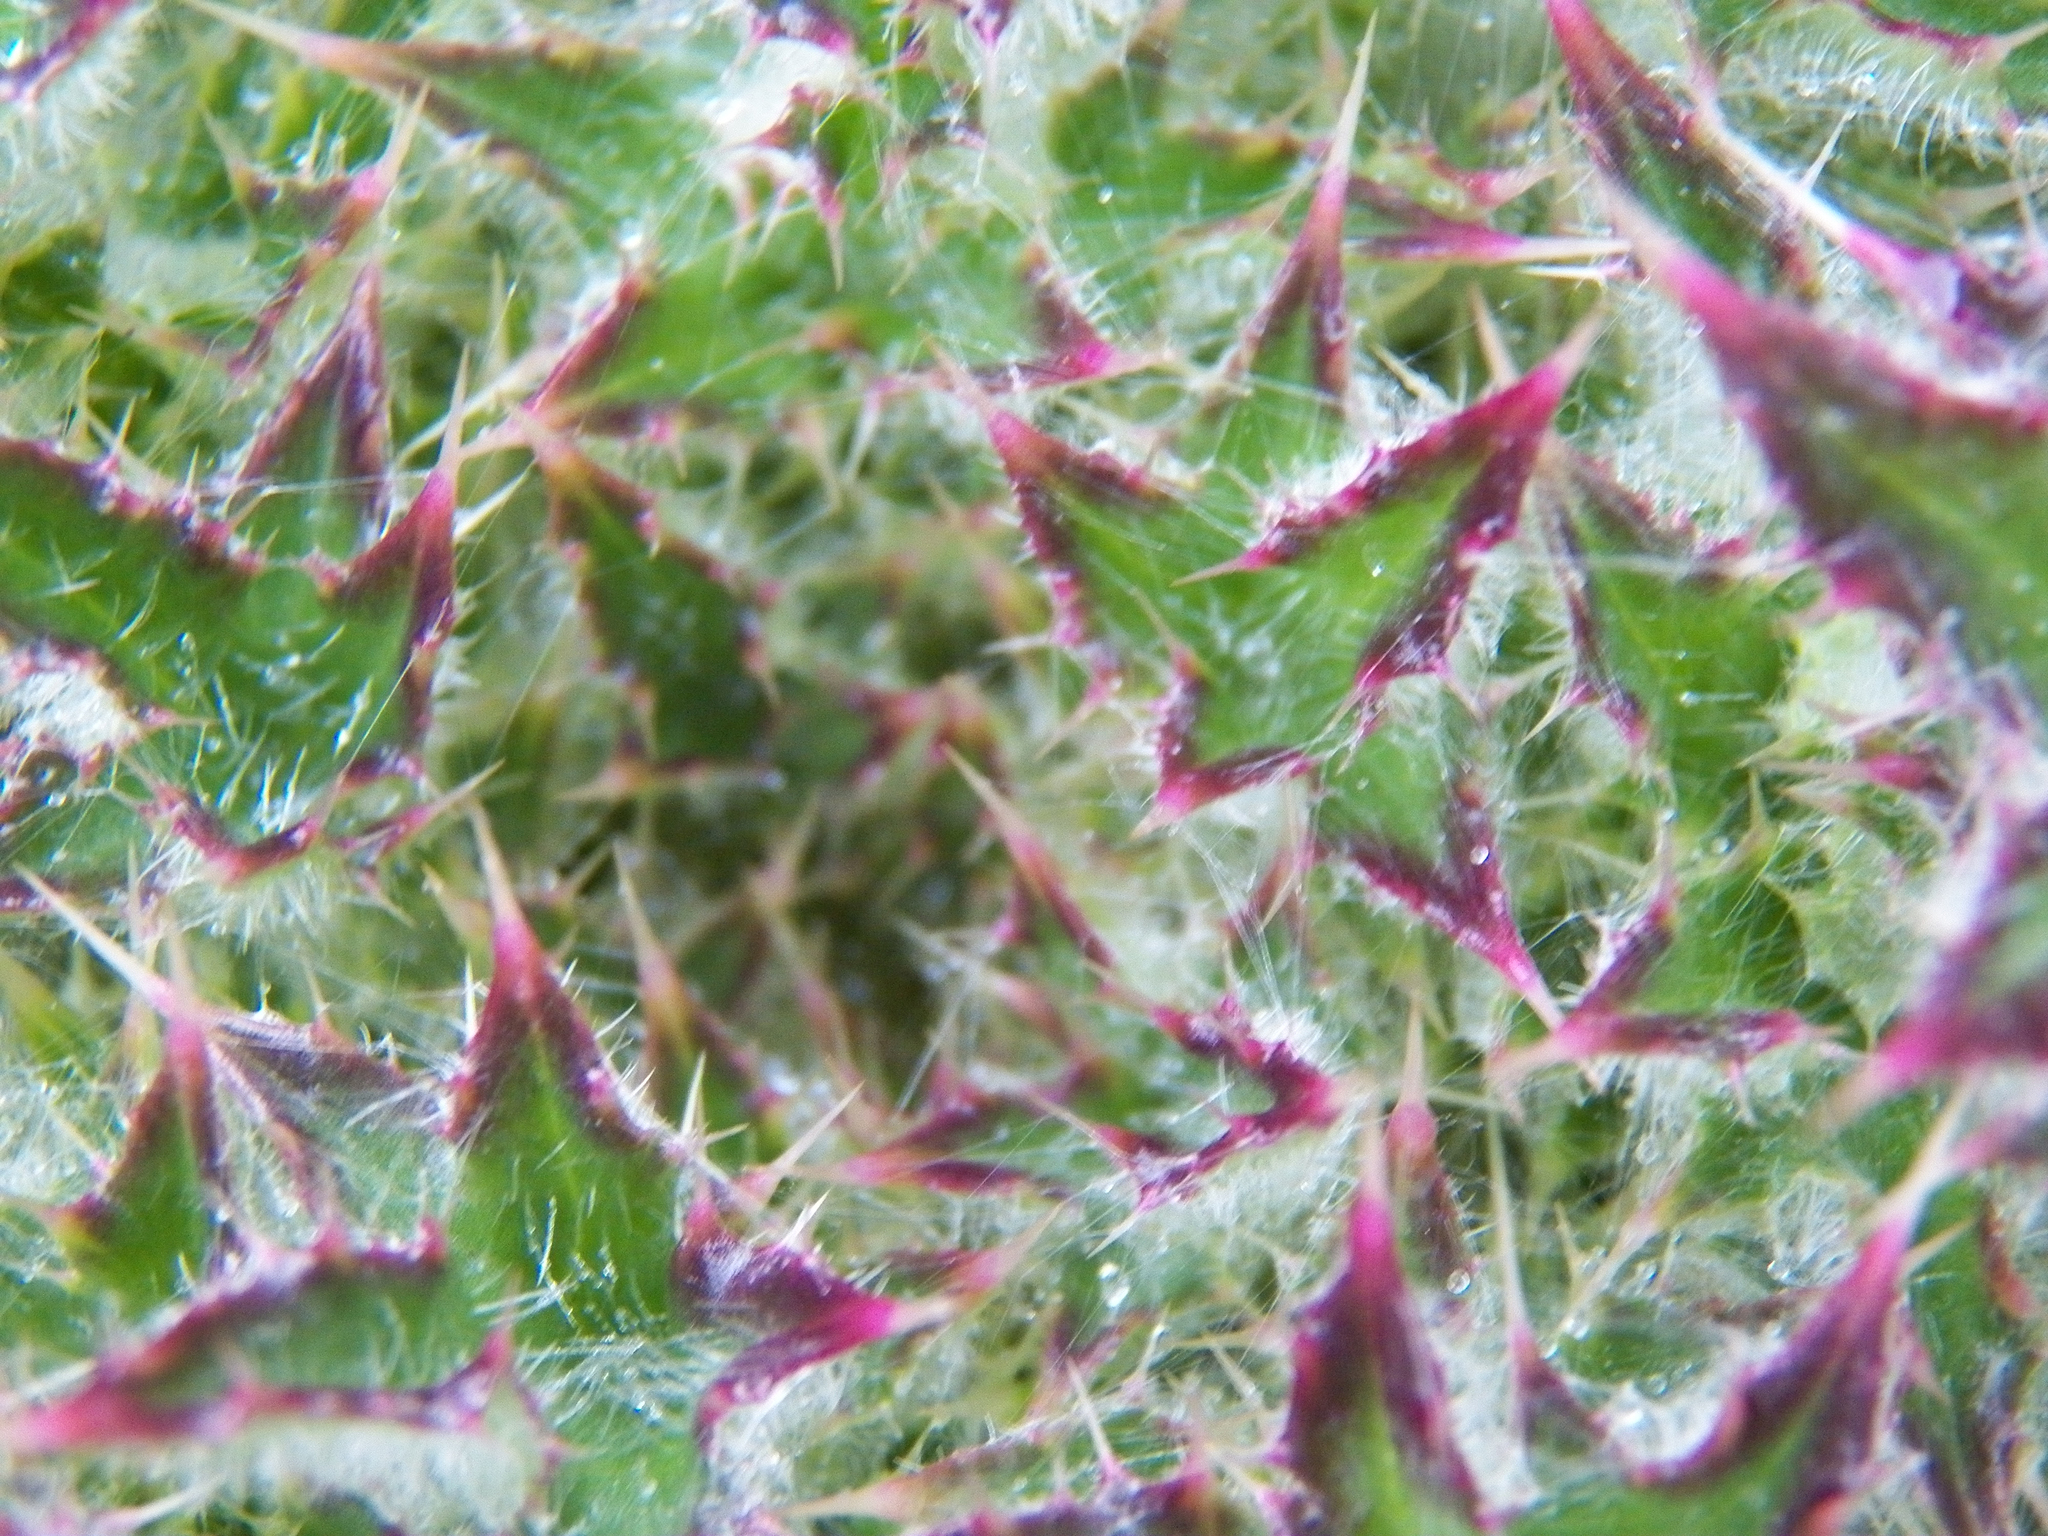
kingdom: Plantae
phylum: Tracheophyta
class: Magnoliopsida
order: Asterales
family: Asteraceae
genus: Cirsium
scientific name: Cirsium horridulum
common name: Bristly thistle
